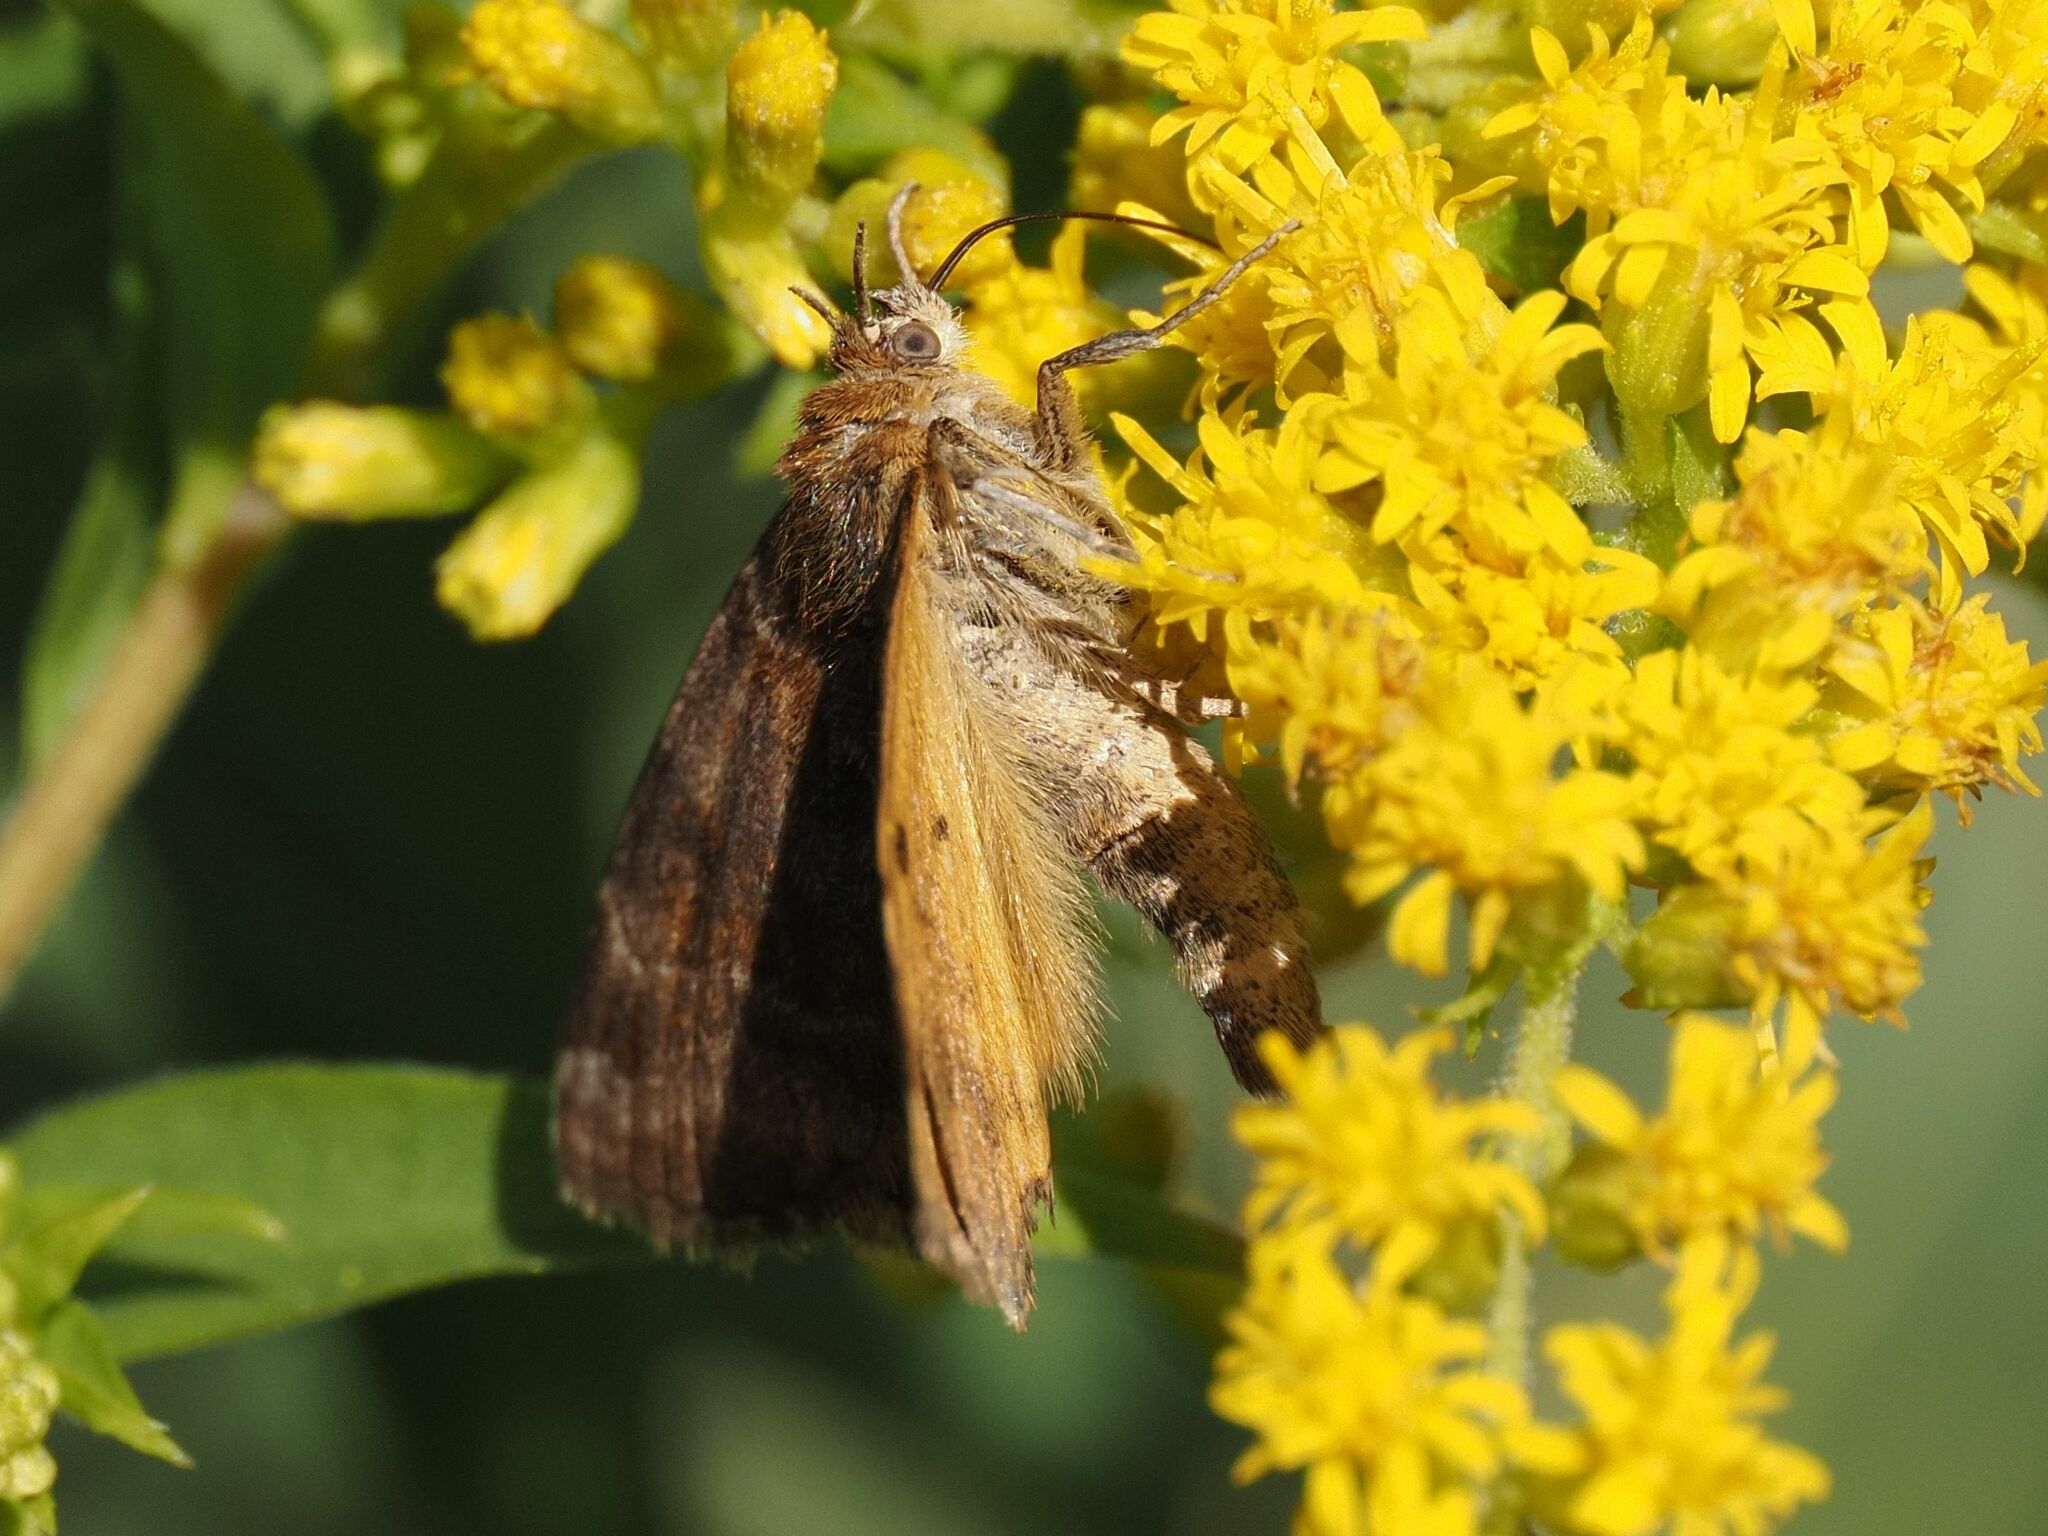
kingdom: Animalia
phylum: Arthropoda
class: Insecta
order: Lepidoptera
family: Erebidae
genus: Euclidia
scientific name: Euclidia glyphica
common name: Burnet companion
